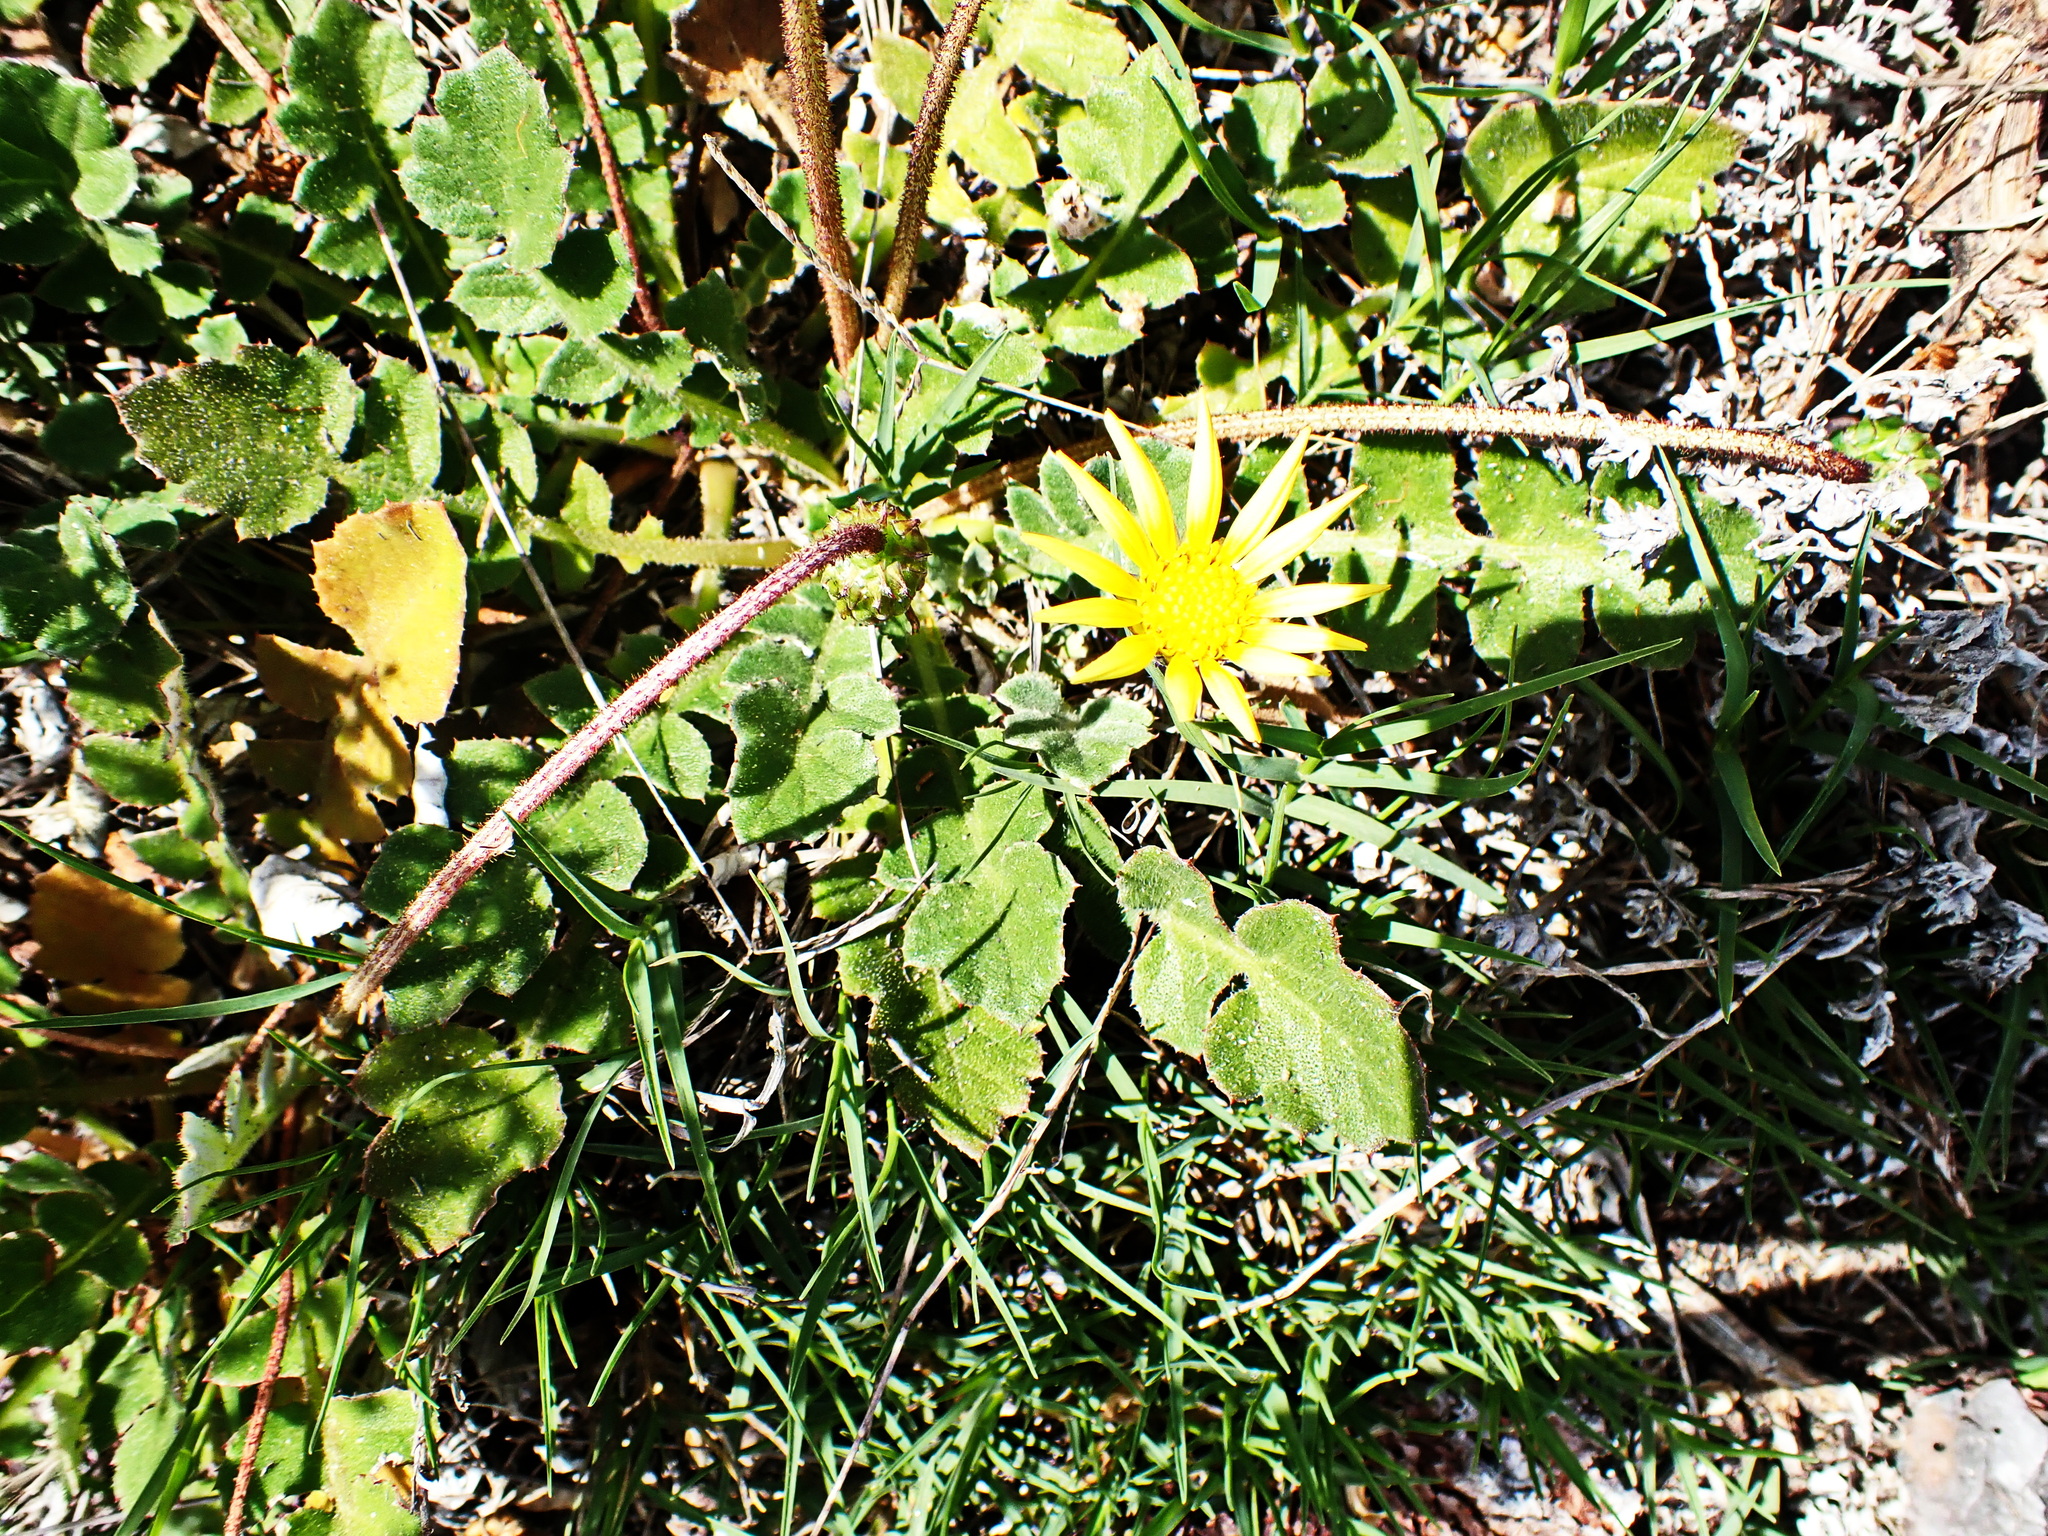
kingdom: Plantae
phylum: Tracheophyta
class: Magnoliopsida
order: Asterales
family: Asteraceae
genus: Arctotheca
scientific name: Arctotheca prostrata
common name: Capeweed
